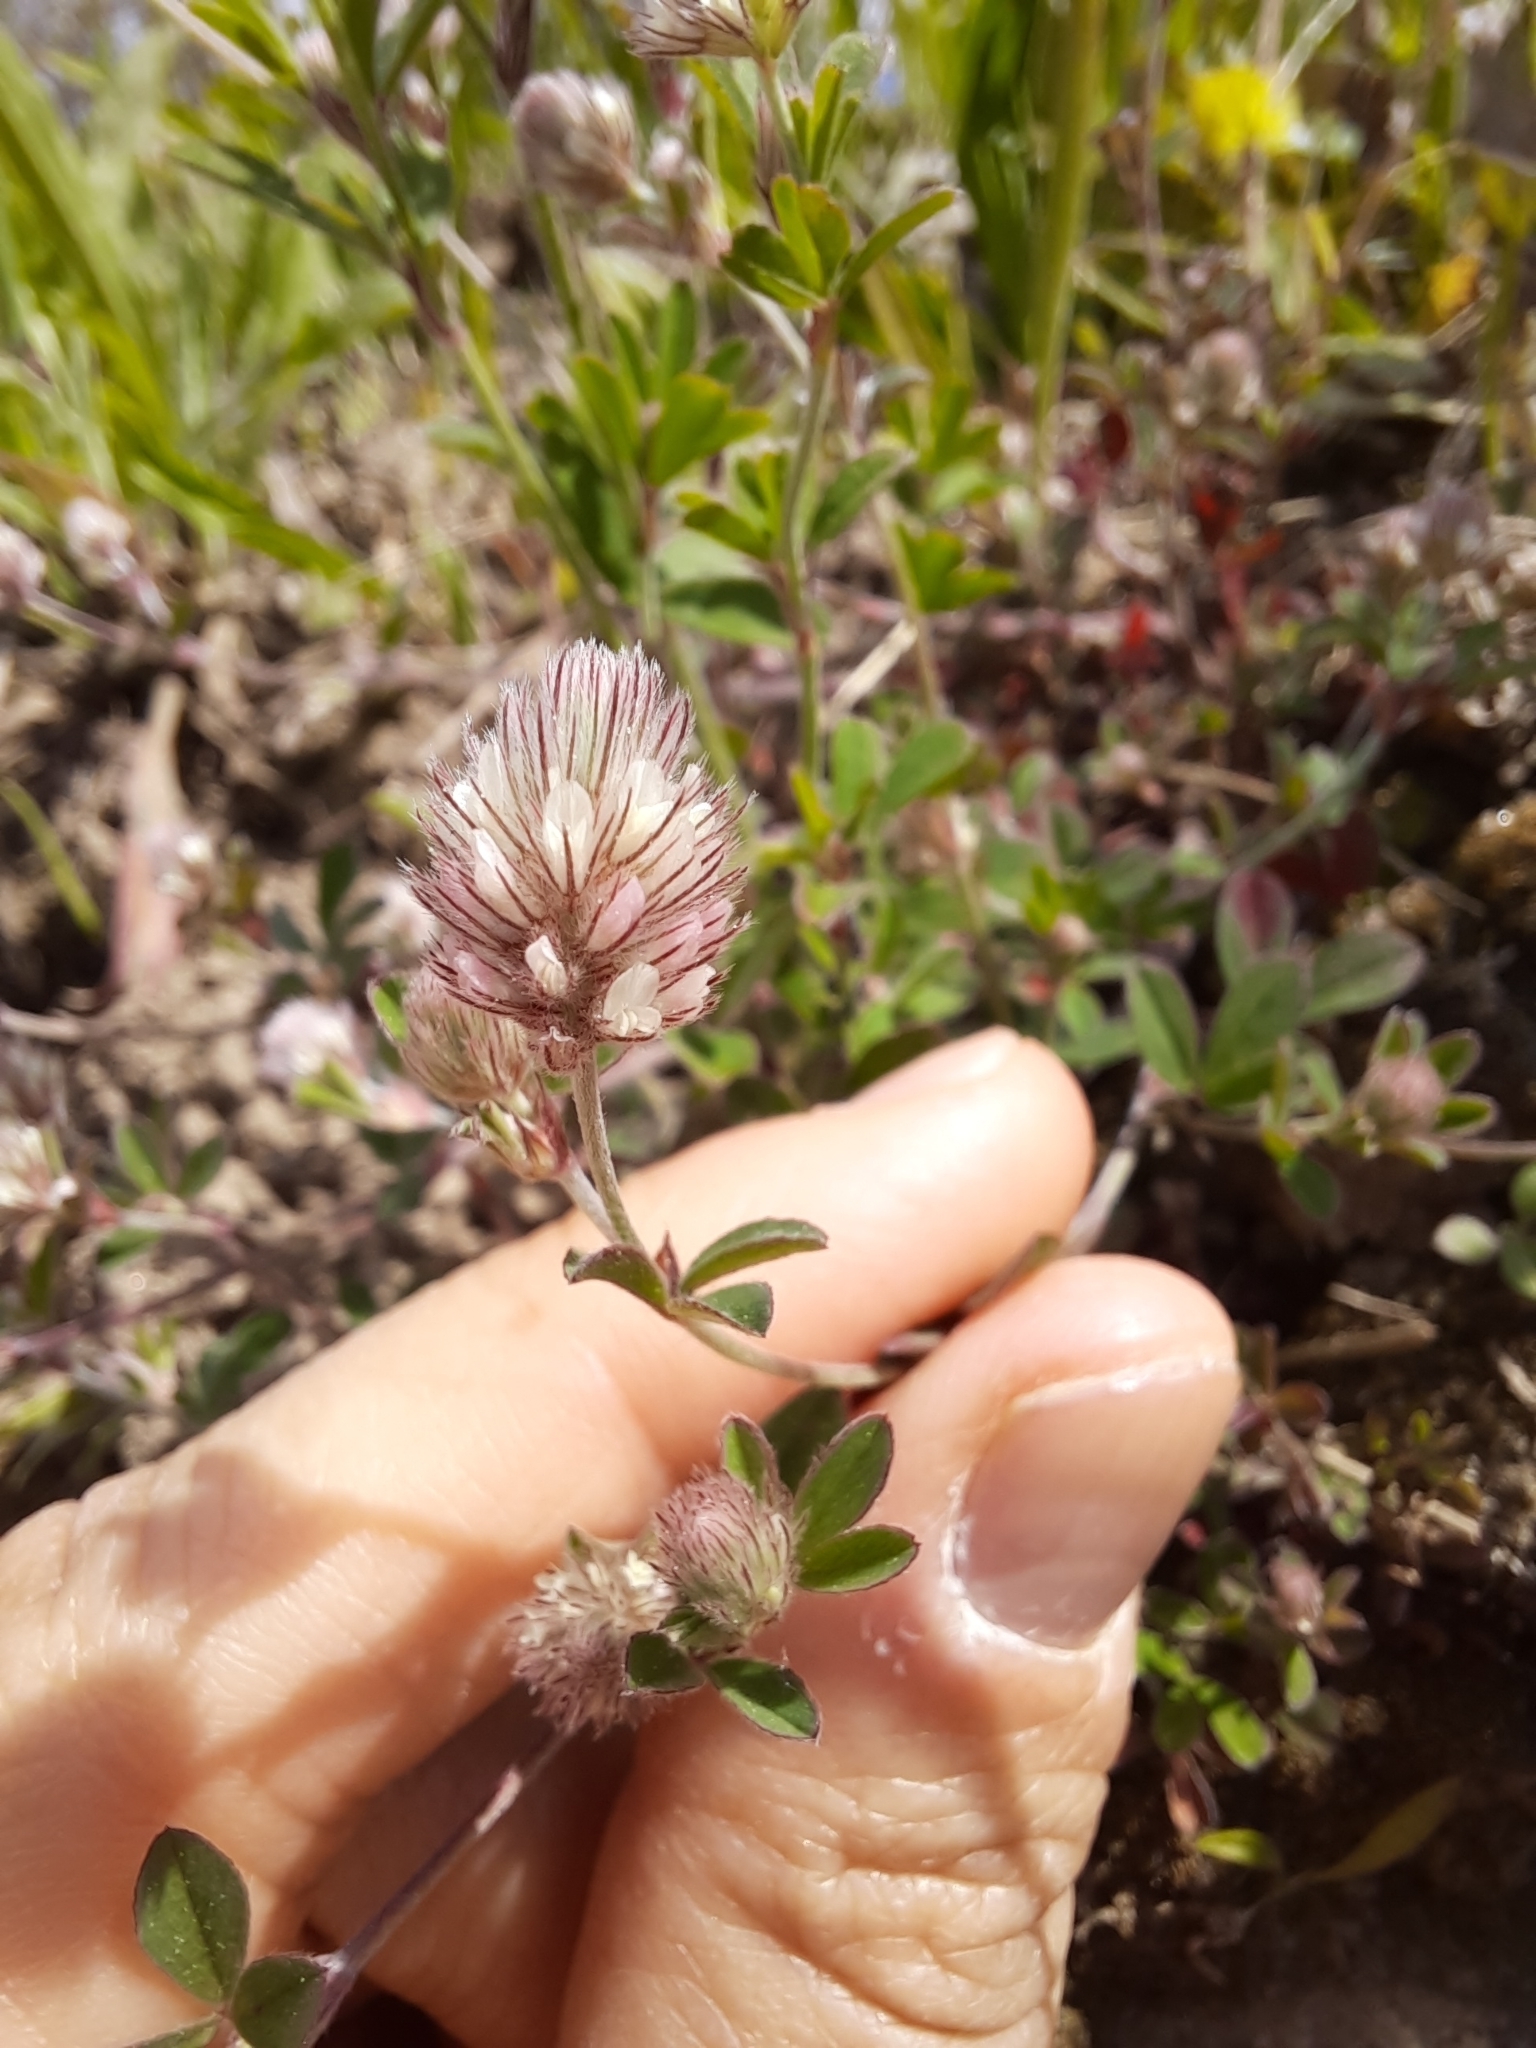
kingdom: Plantae
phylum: Tracheophyta
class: Magnoliopsida
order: Fabales
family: Fabaceae
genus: Trifolium
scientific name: Trifolium arvense
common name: Hare's-foot clover
